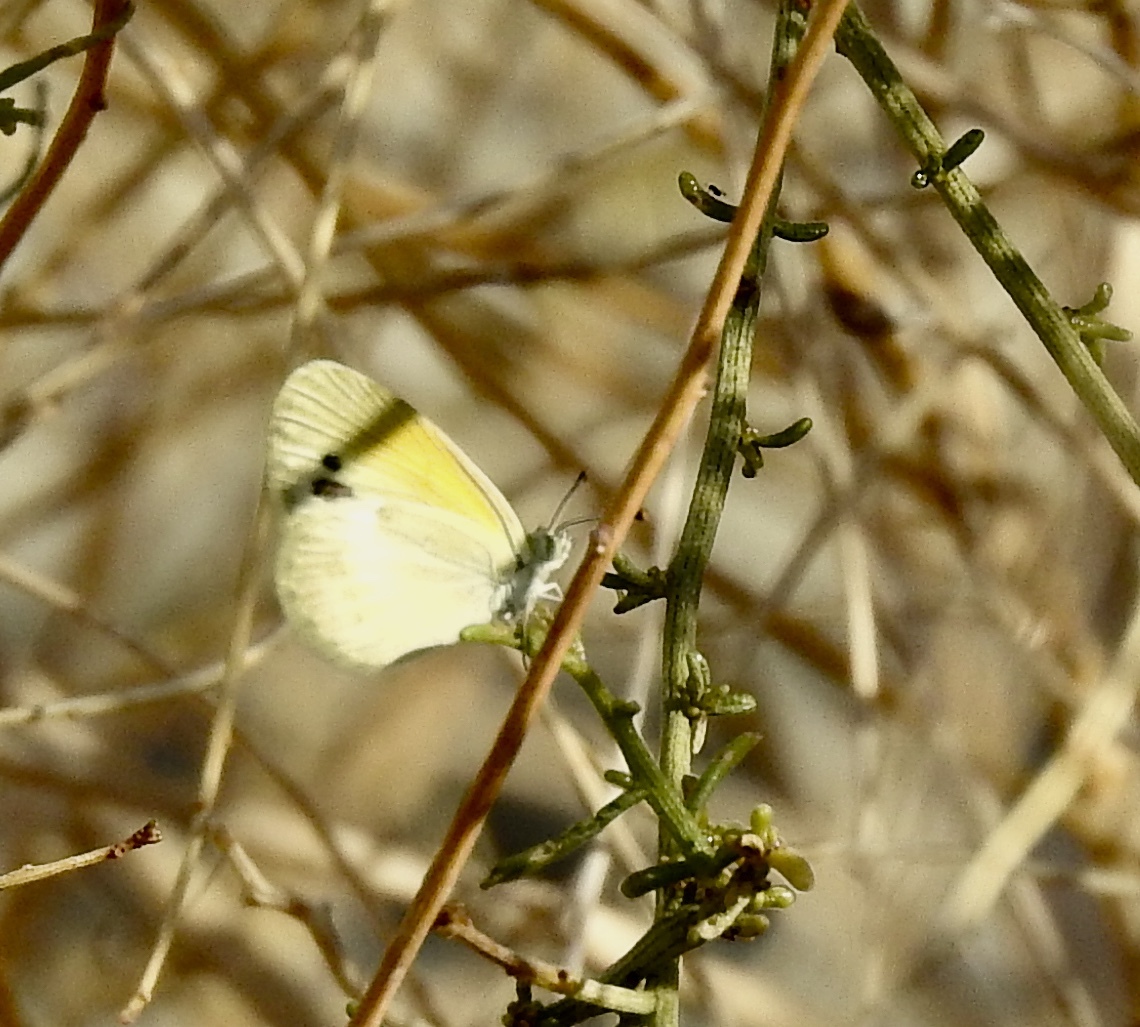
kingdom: Animalia
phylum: Arthropoda
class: Insecta
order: Lepidoptera
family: Pieridae
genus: Nathalis
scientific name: Nathalis iole
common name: Dainty sulphur
